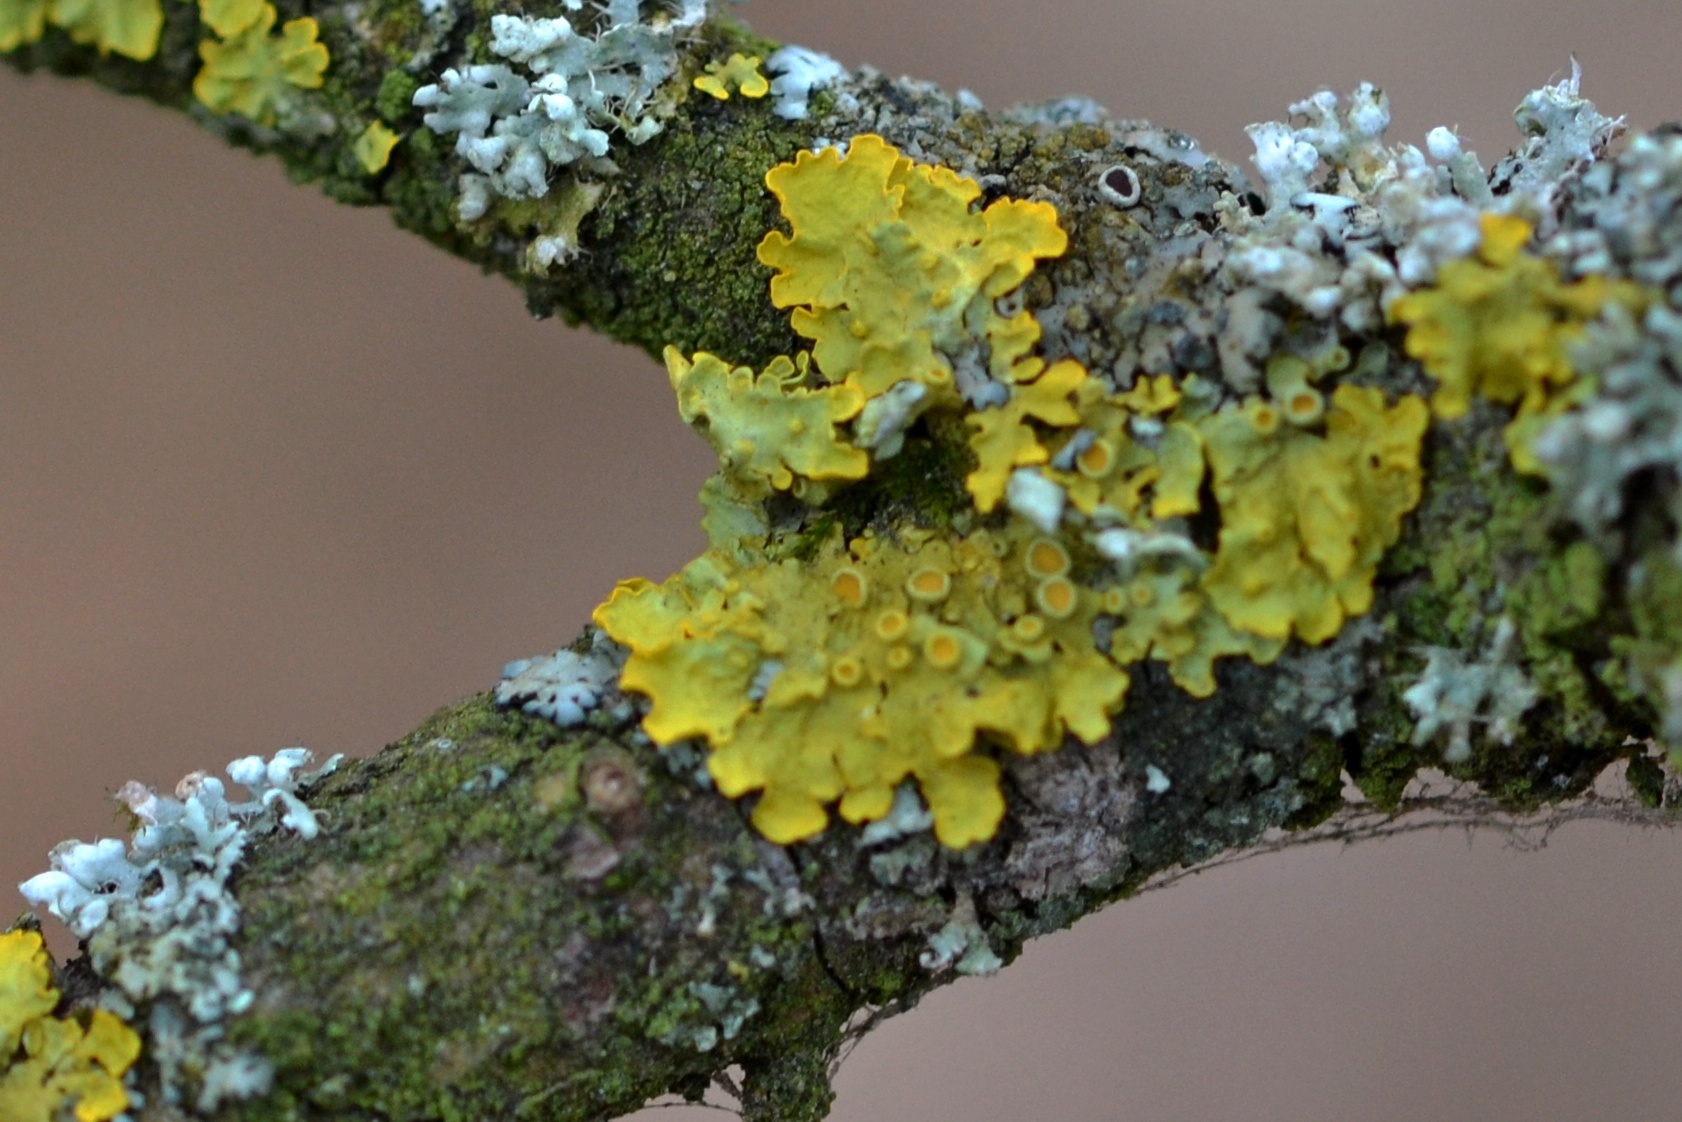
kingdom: Fungi
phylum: Ascomycota
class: Lecanoromycetes
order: Teloschistales
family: Teloschistaceae
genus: Xanthoria
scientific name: Xanthoria parietina
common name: Common orange lichen
